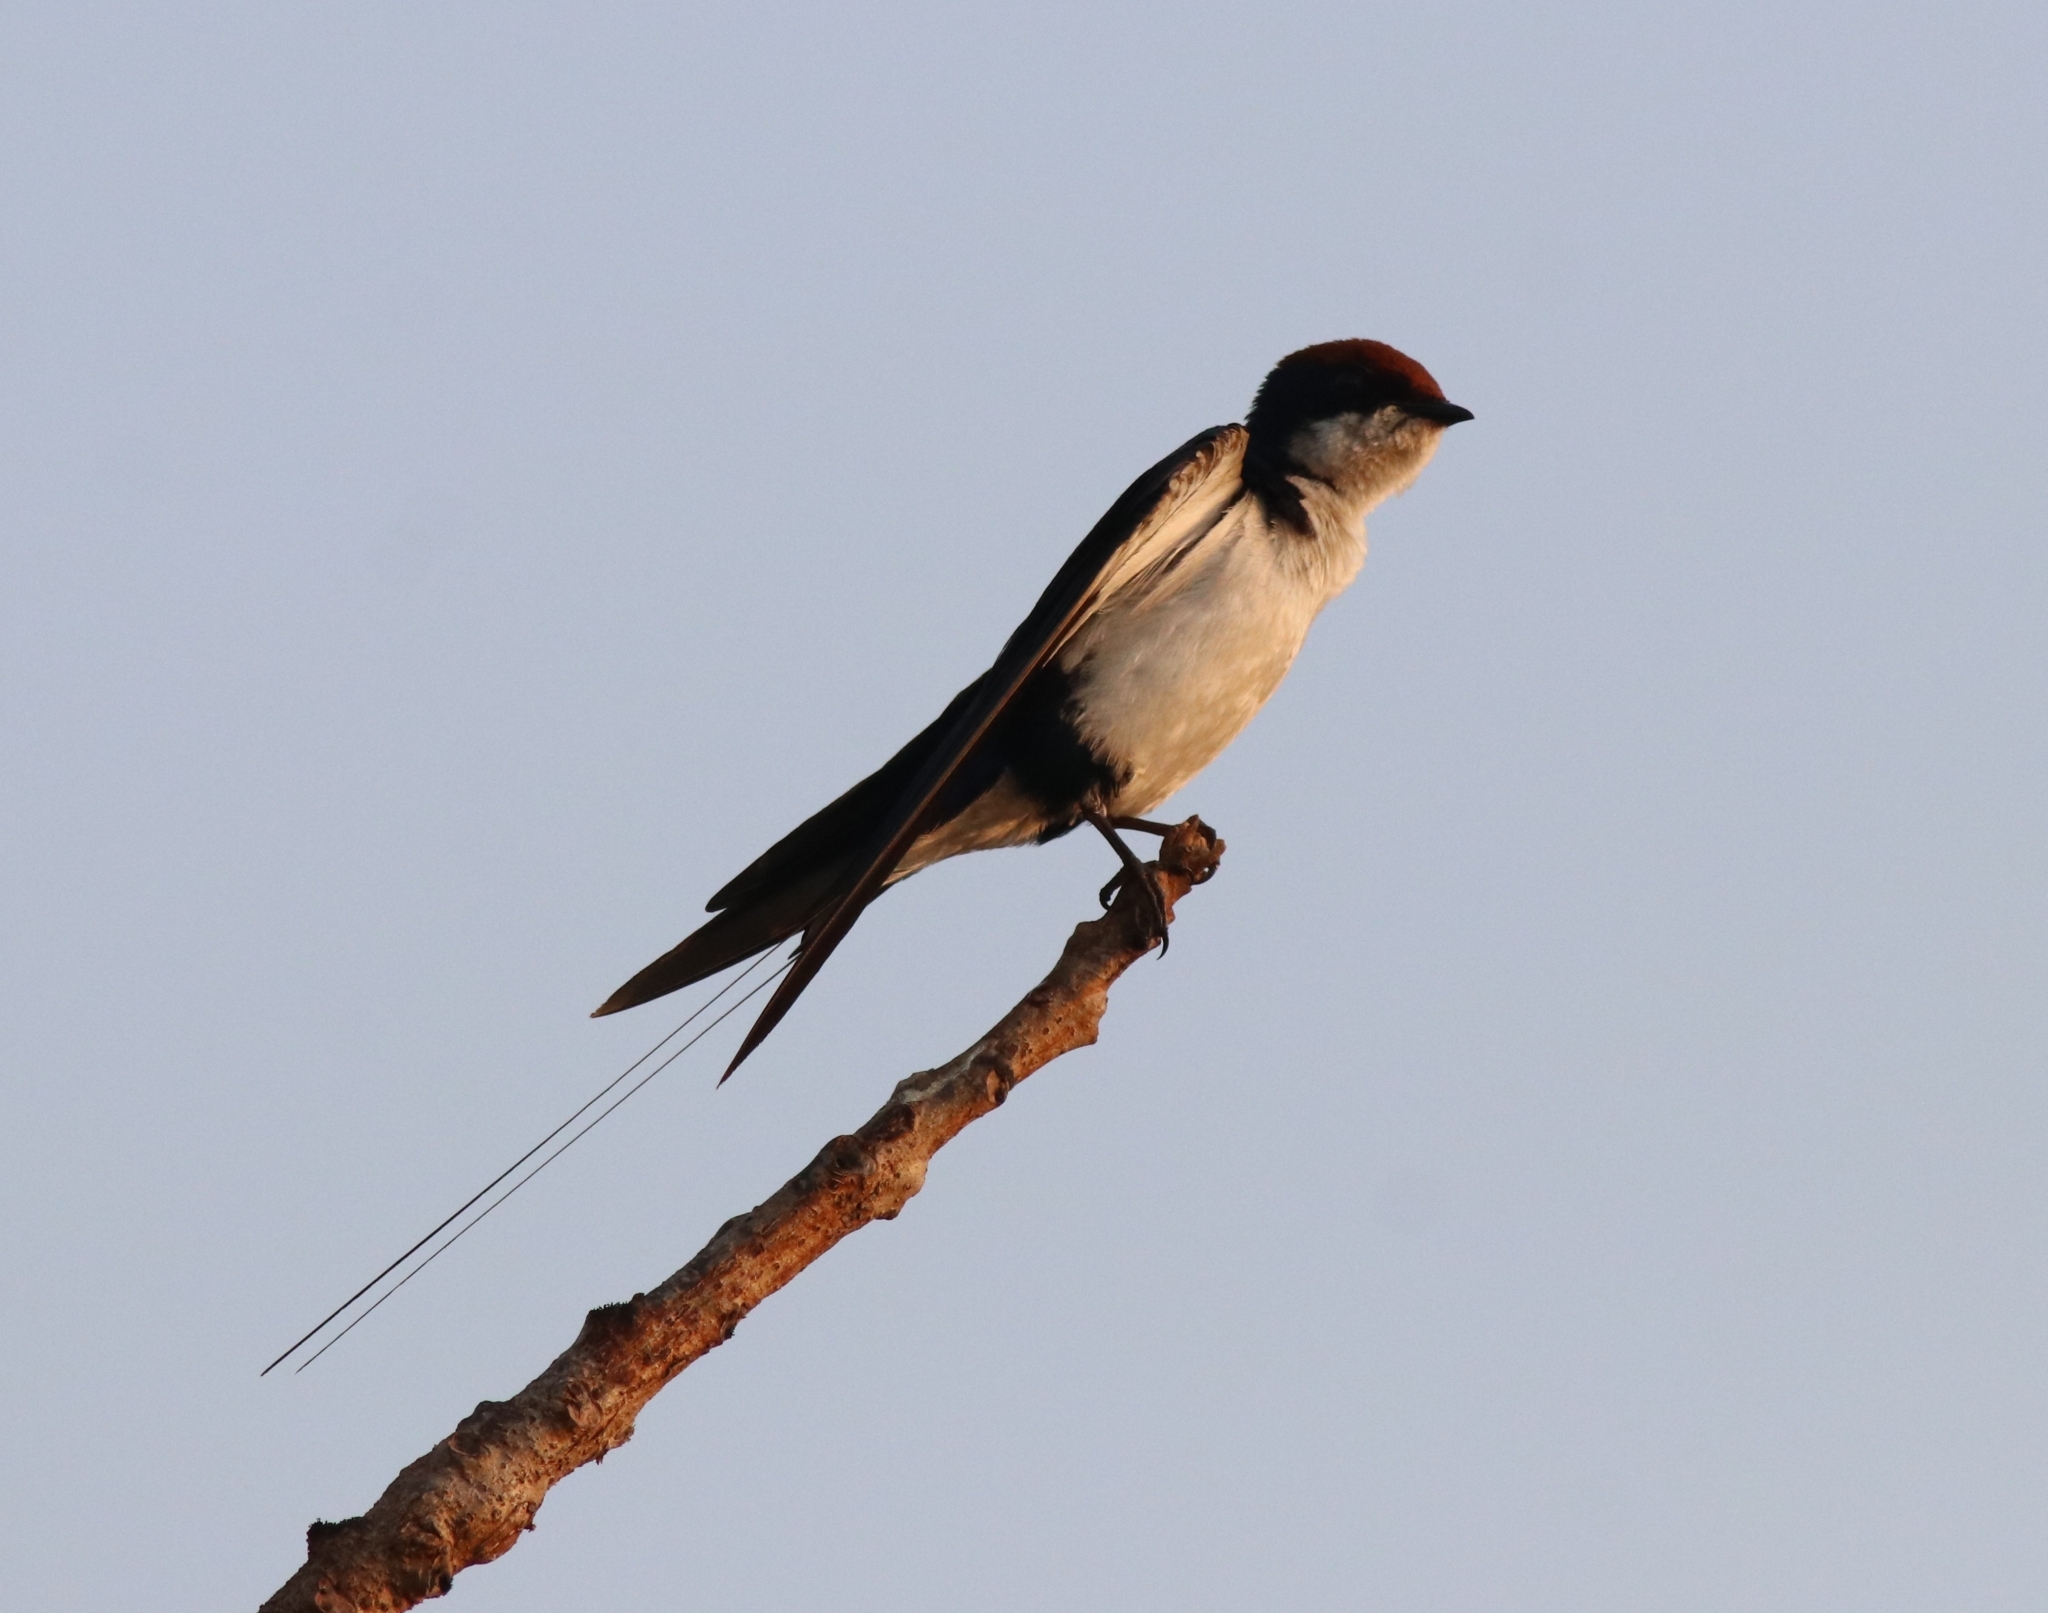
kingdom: Animalia
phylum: Chordata
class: Aves
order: Passeriformes
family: Hirundinidae
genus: Hirundo
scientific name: Hirundo smithii
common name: Wire-tailed swallow
